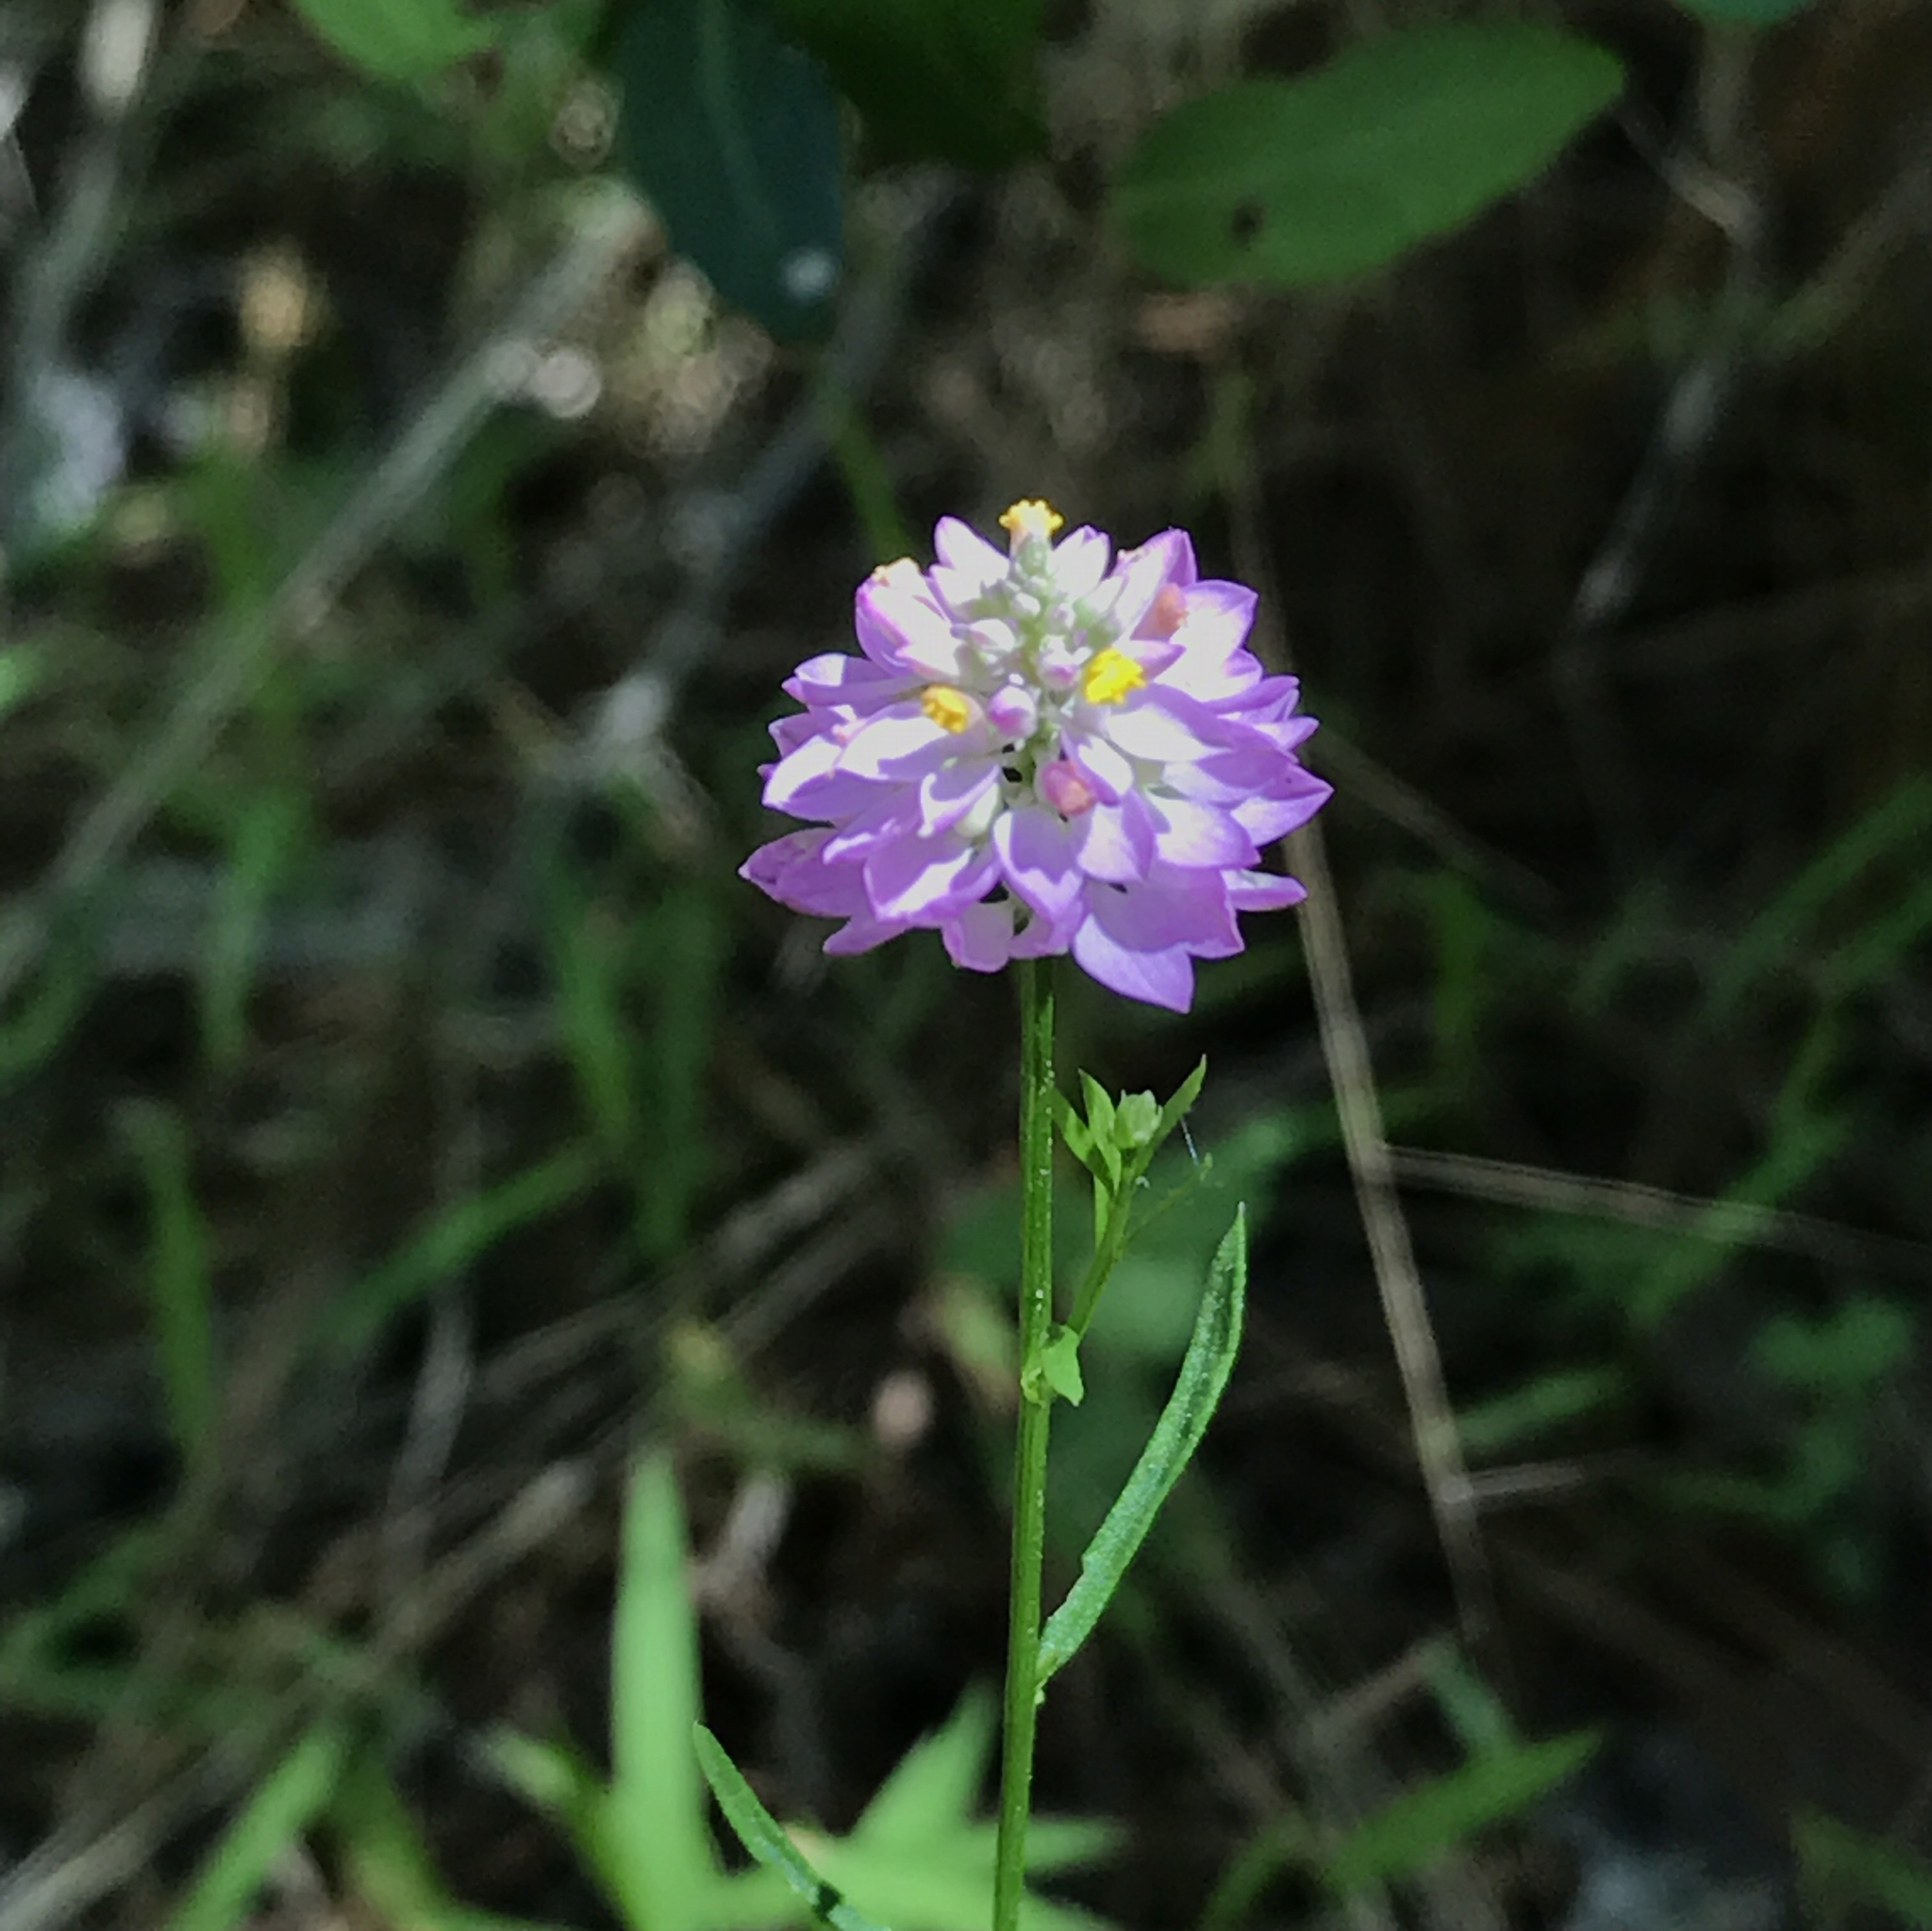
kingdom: Plantae
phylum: Tracheophyta
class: Magnoliopsida
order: Fabales
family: Polygalaceae
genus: Polygala
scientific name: Polygala mariana
